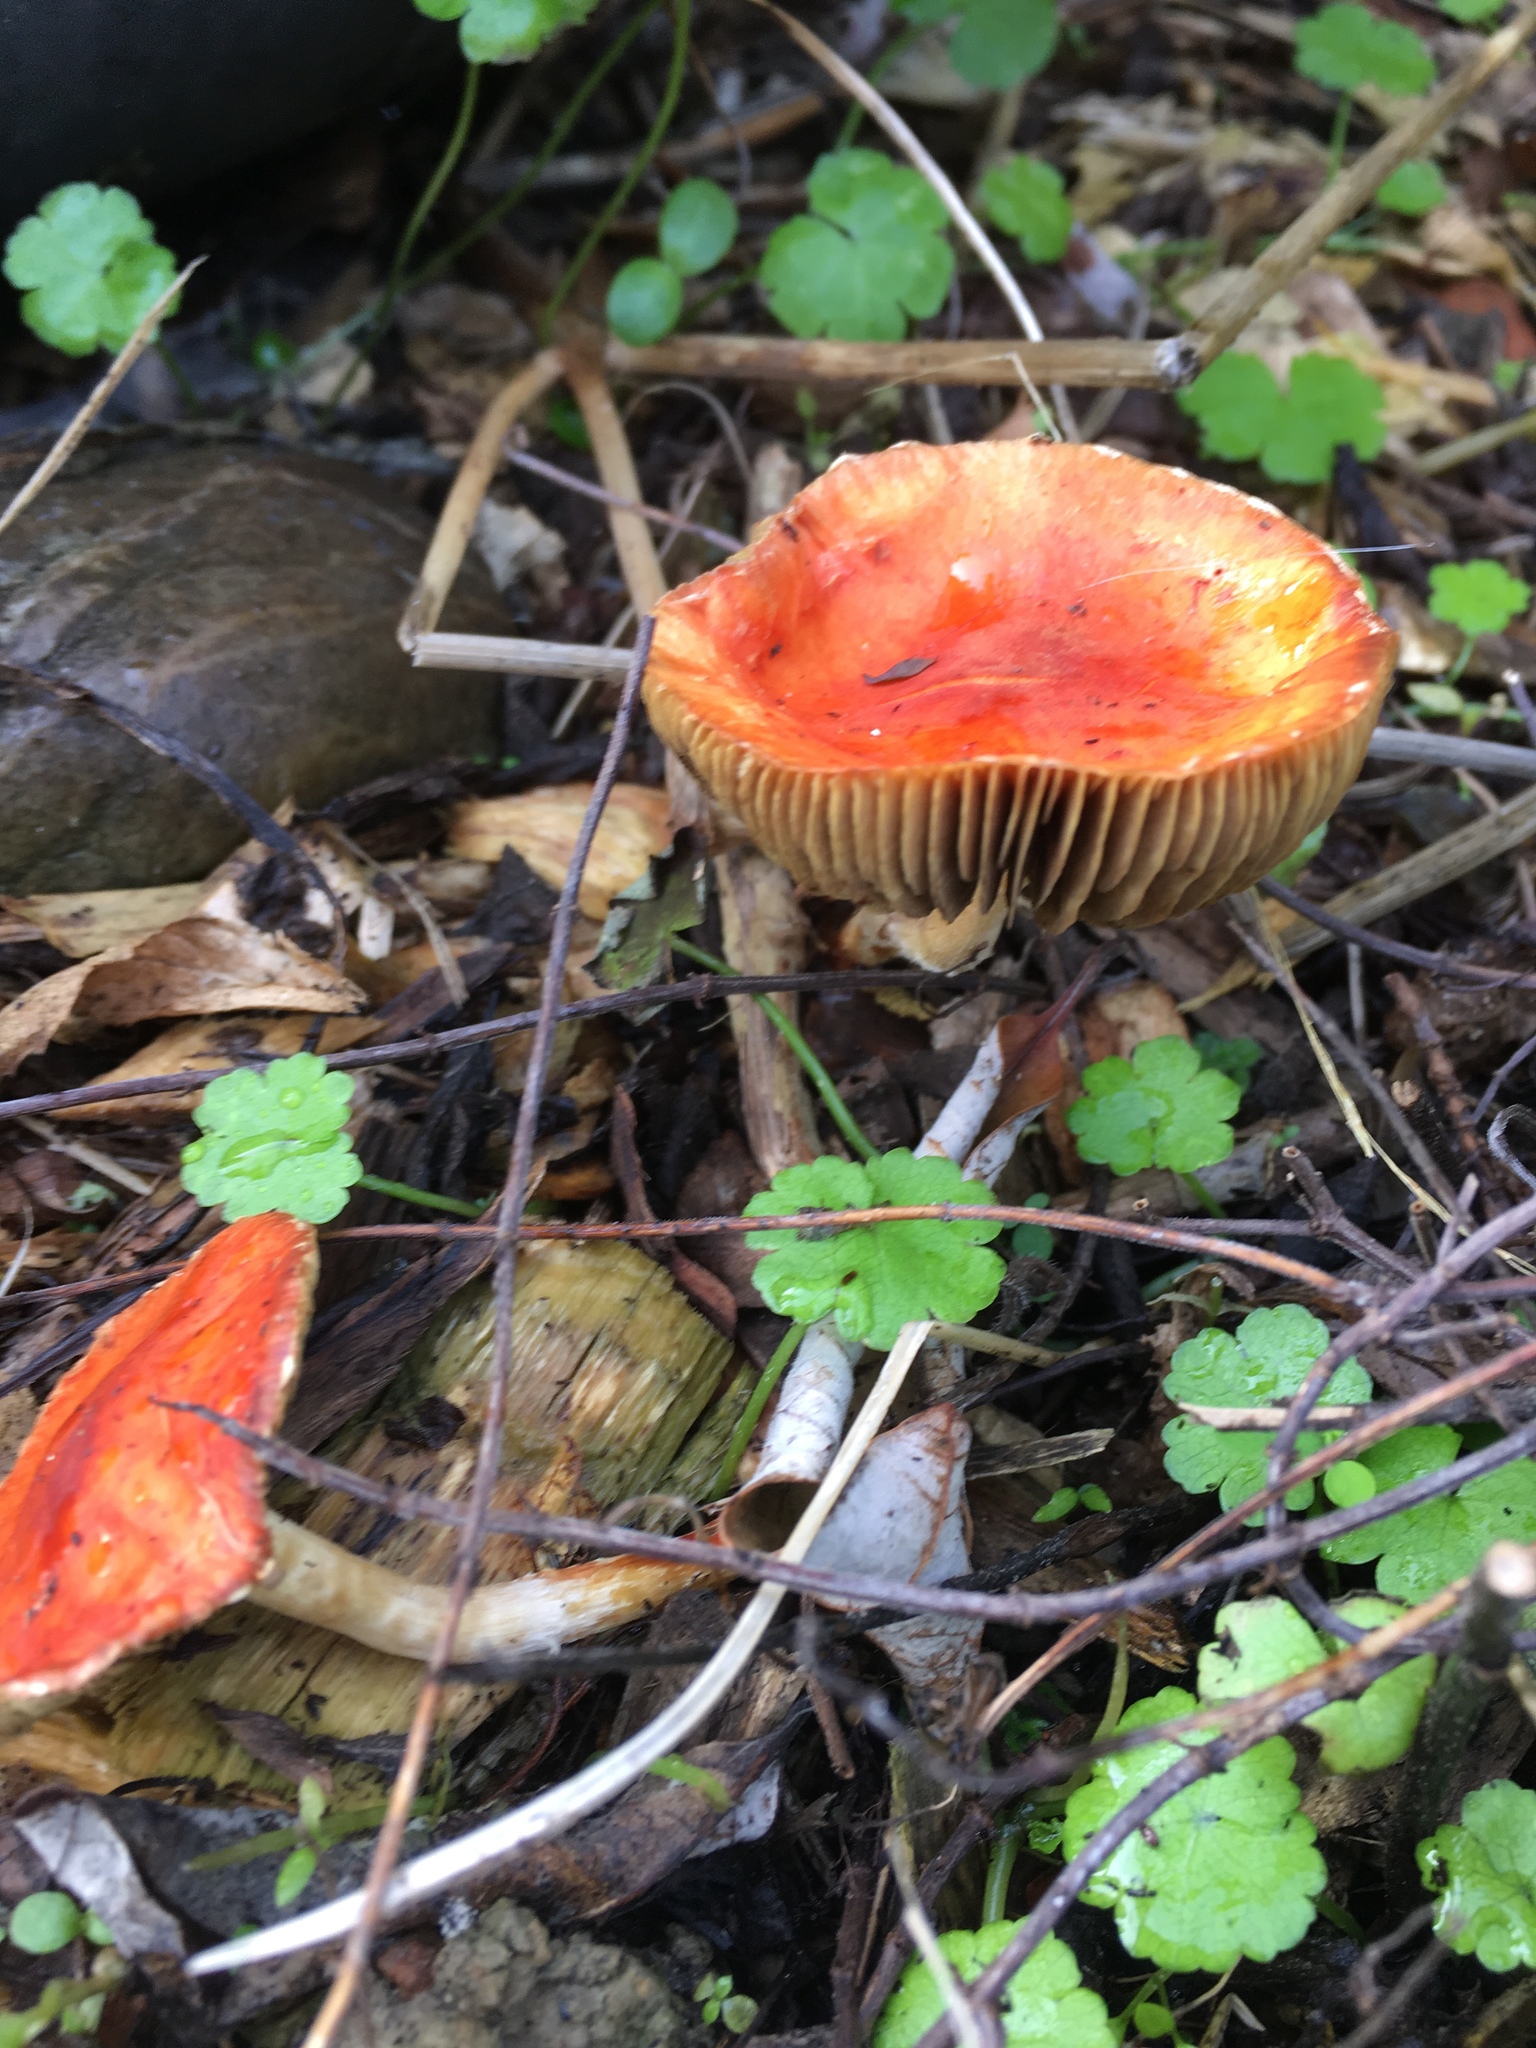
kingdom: Fungi
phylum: Basidiomycota
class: Agaricomycetes
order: Agaricales
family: Strophariaceae
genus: Leratiomyces
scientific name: Leratiomyces ceres
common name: Redlead roundhead
